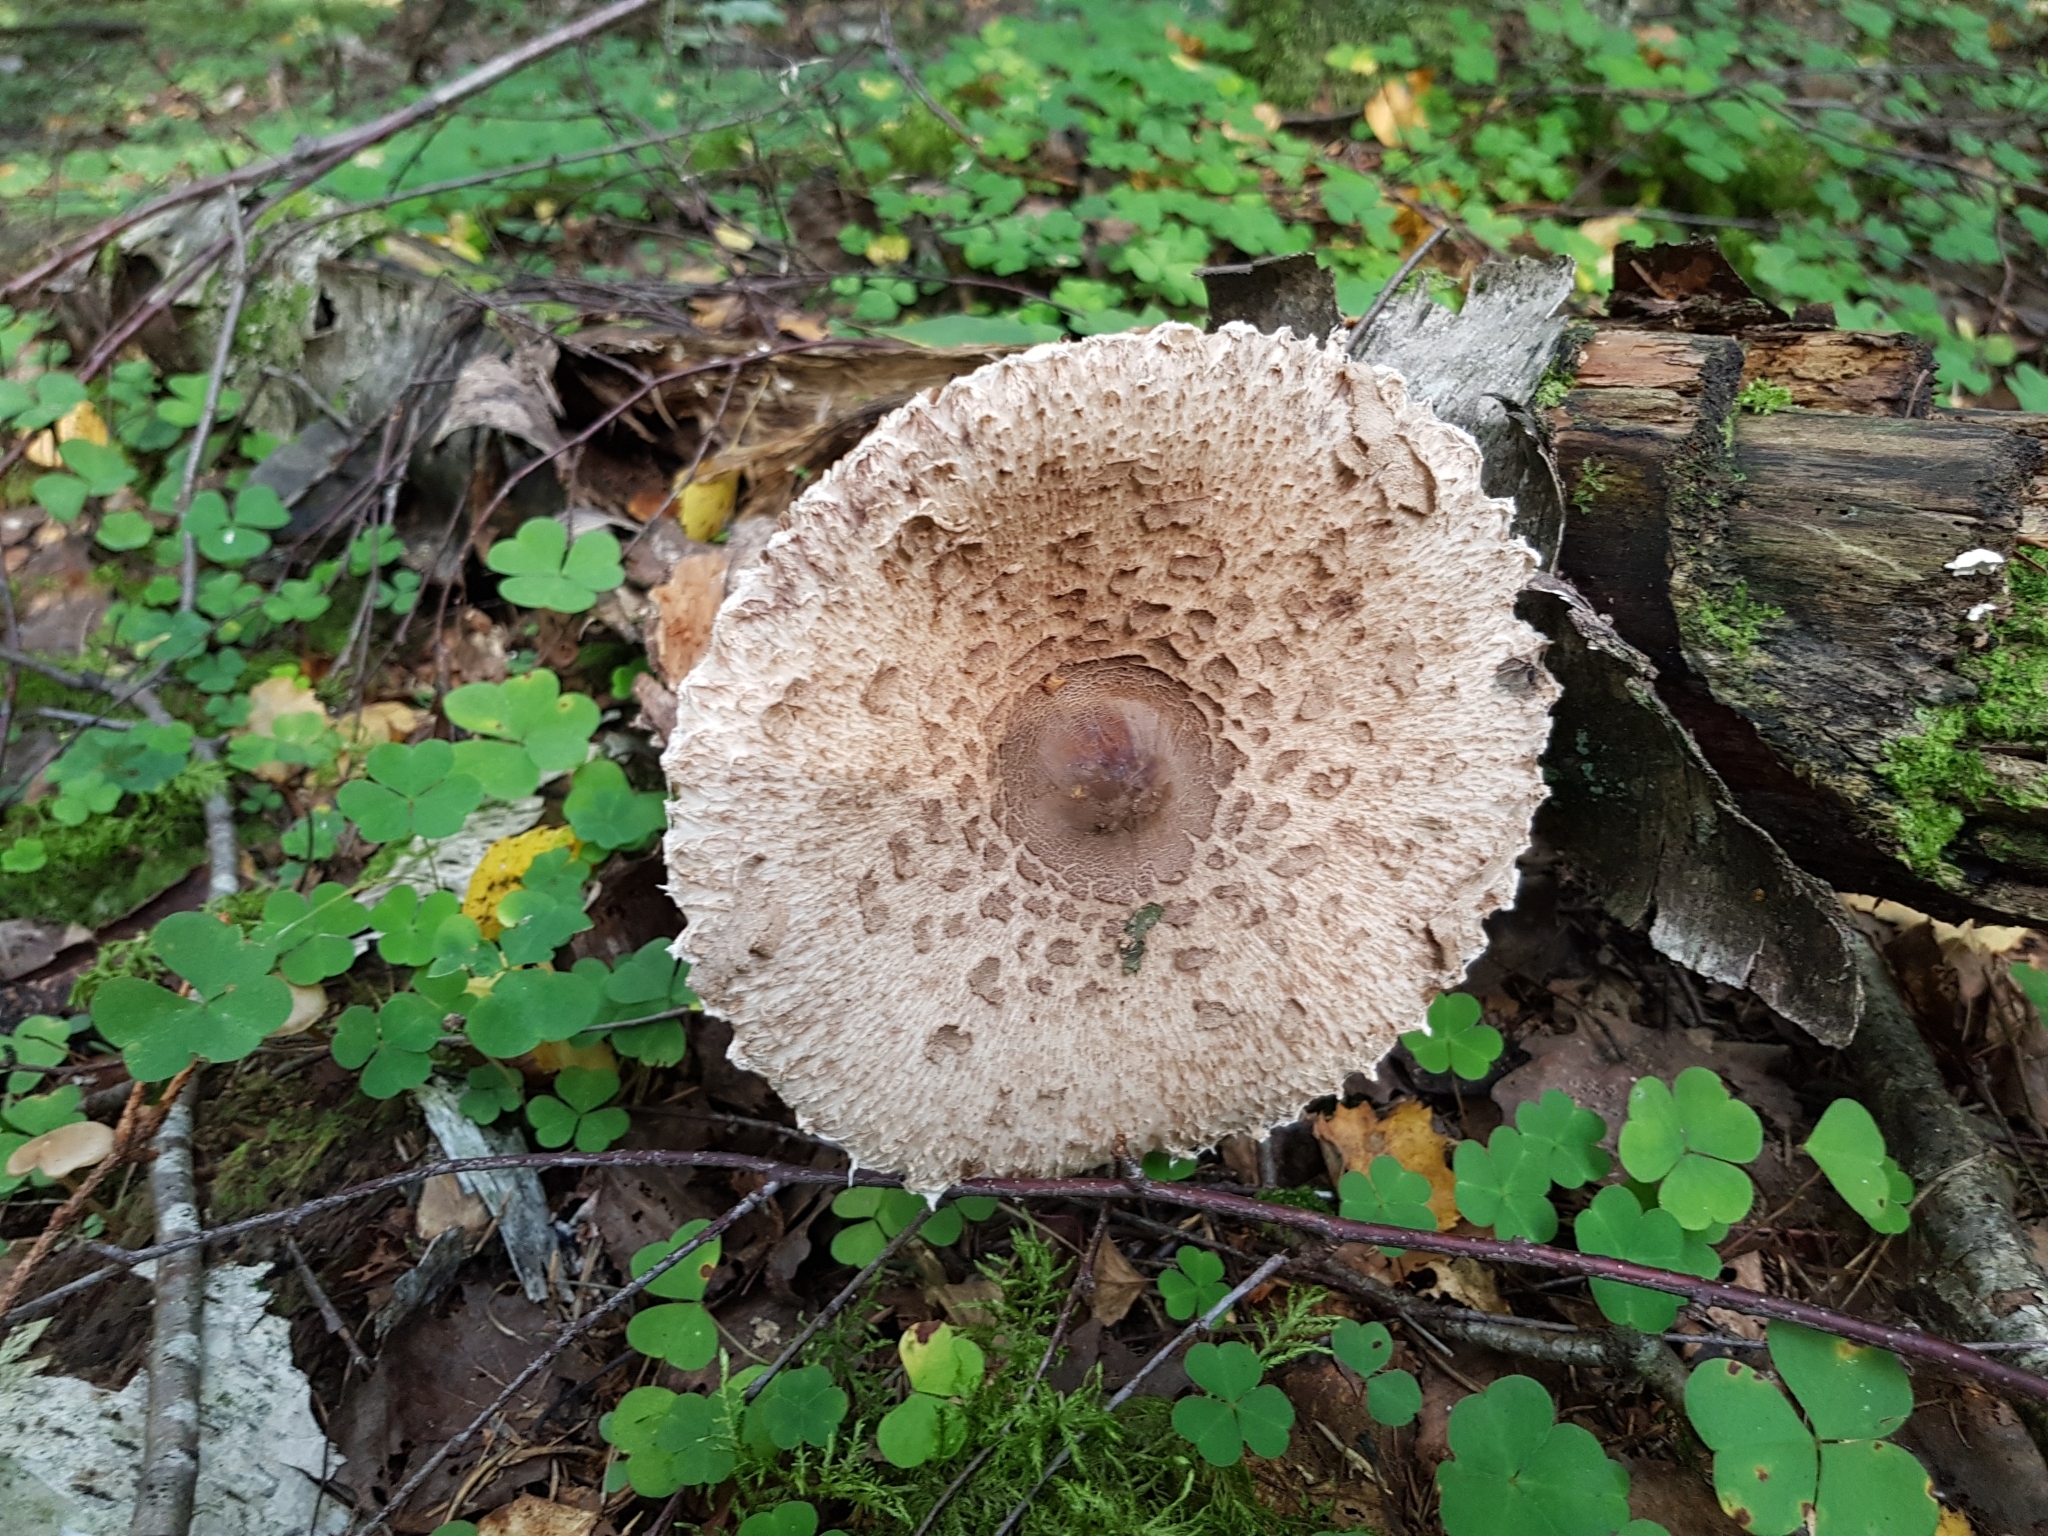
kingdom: Fungi
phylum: Basidiomycota
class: Agaricomycetes
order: Agaricales
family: Agaricaceae
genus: Macrolepiota
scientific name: Macrolepiota procera
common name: Parasol
